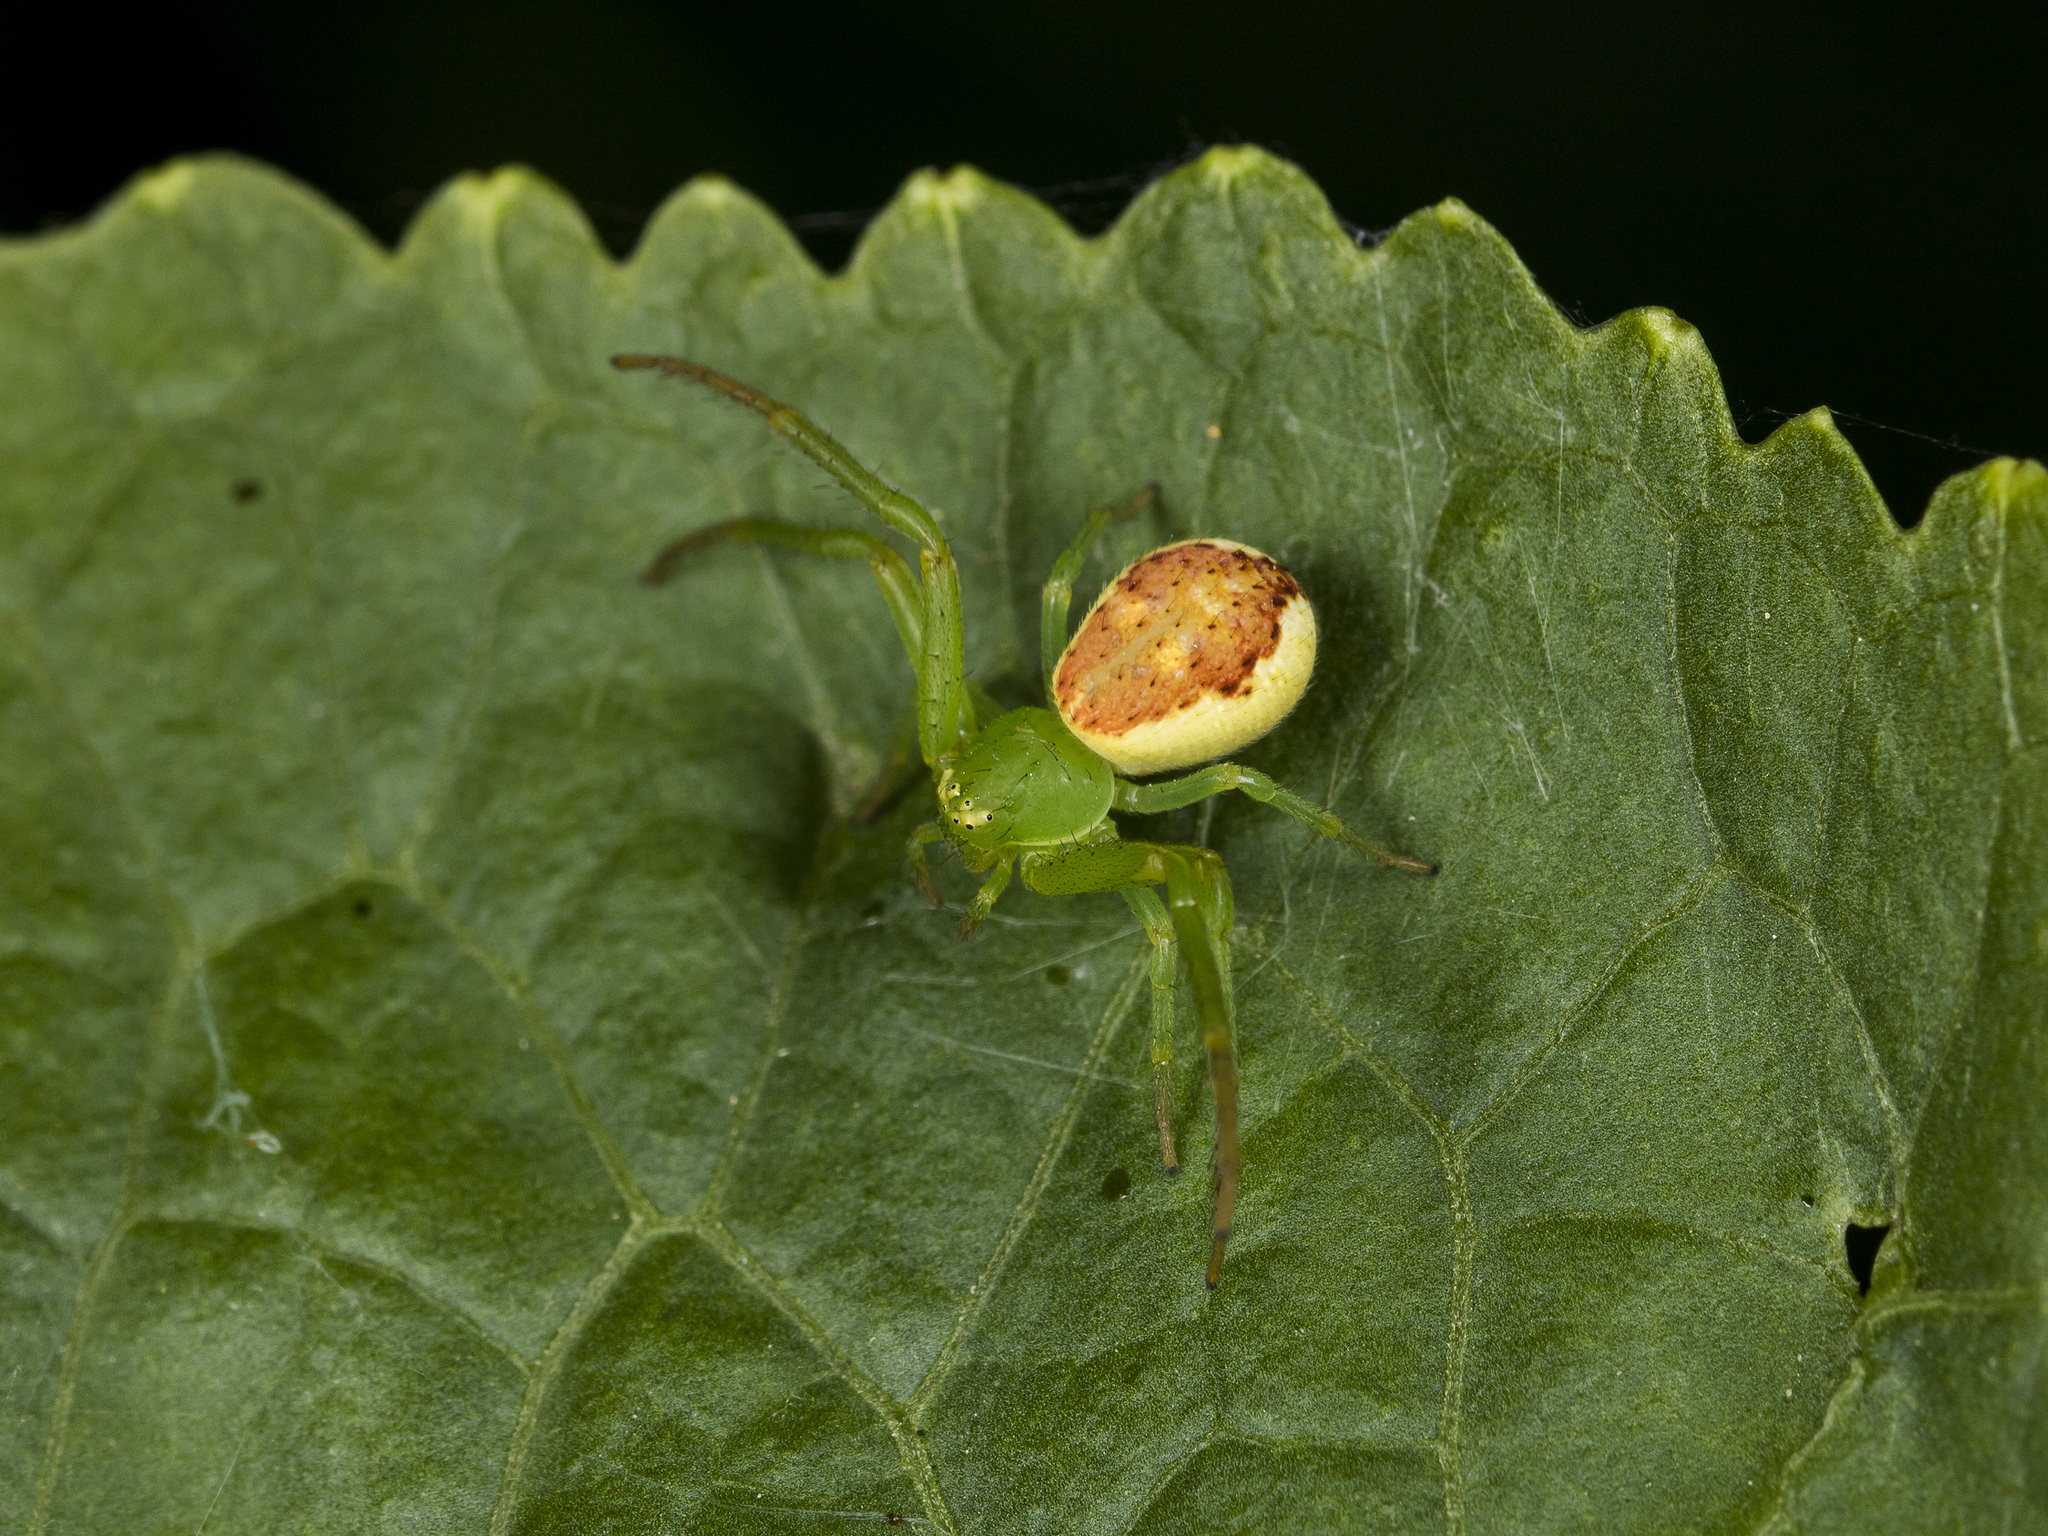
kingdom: Animalia
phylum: Arthropoda
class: Arachnida
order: Araneae
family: Thomisidae
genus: Diaea
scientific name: Diaea suspiciosa
